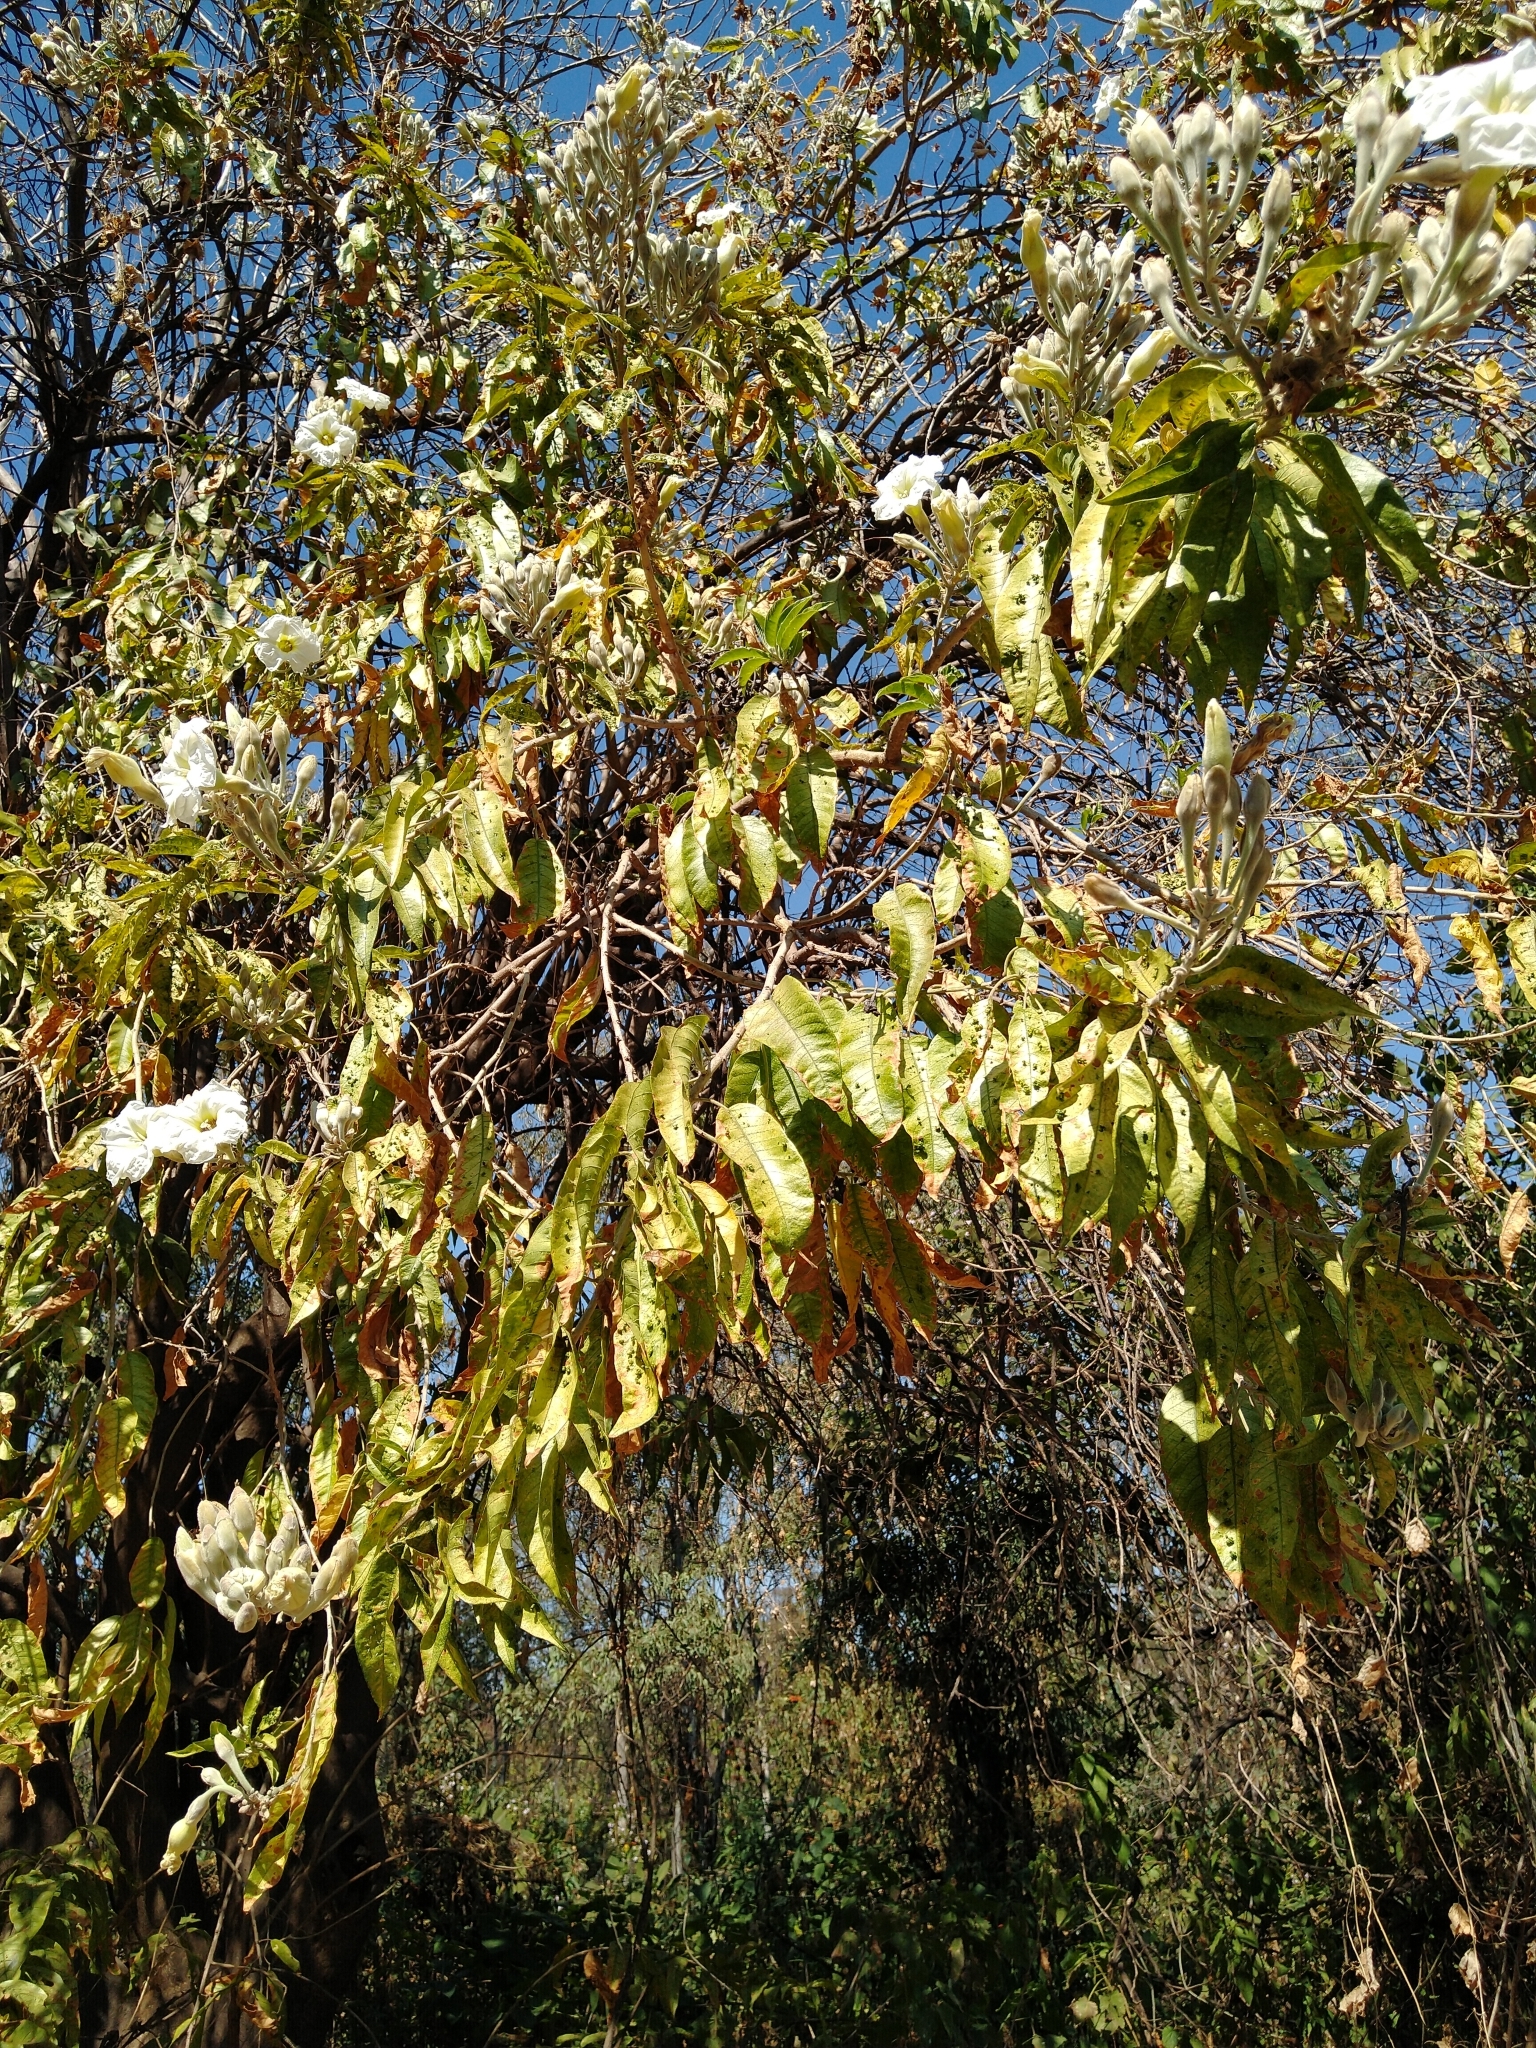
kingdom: Plantae
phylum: Tracheophyta
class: Magnoliopsida
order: Solanales
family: Convolvulaceae
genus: Ipomoea
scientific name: Ipomoea murucoides
